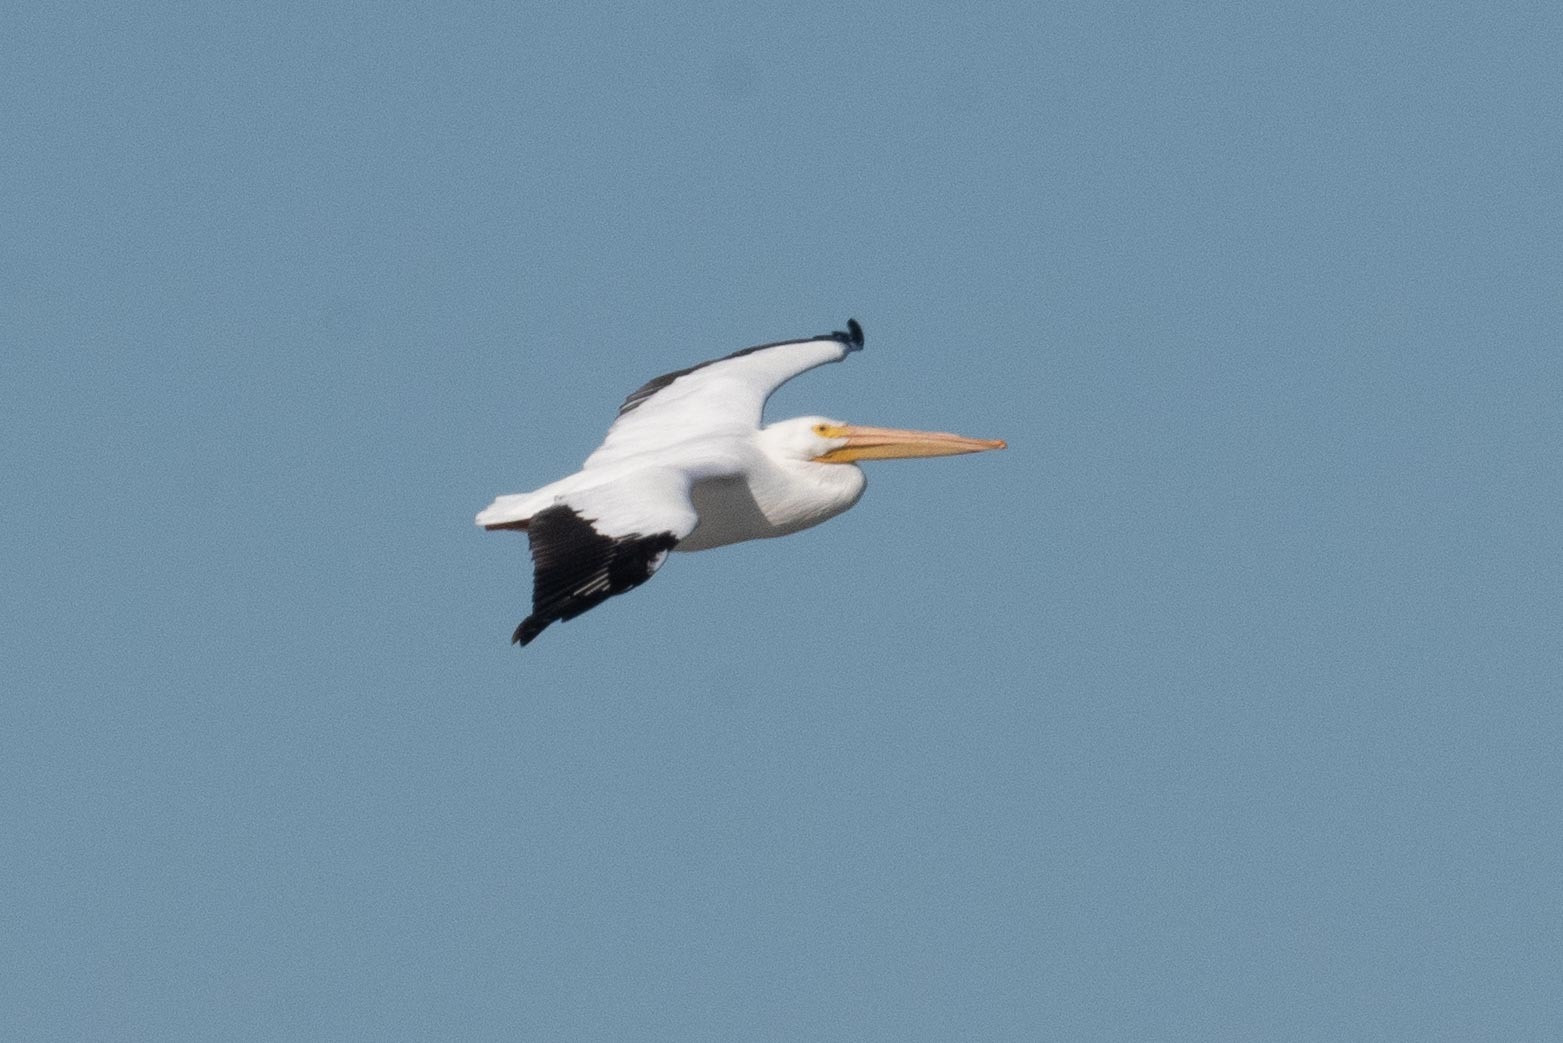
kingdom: Animalia
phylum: Chordata
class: Aves
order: Pelecaniformes
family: Pelecanidae
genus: Pelecanus
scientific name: Pelecanus erythrorhynchos
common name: American white pelican
